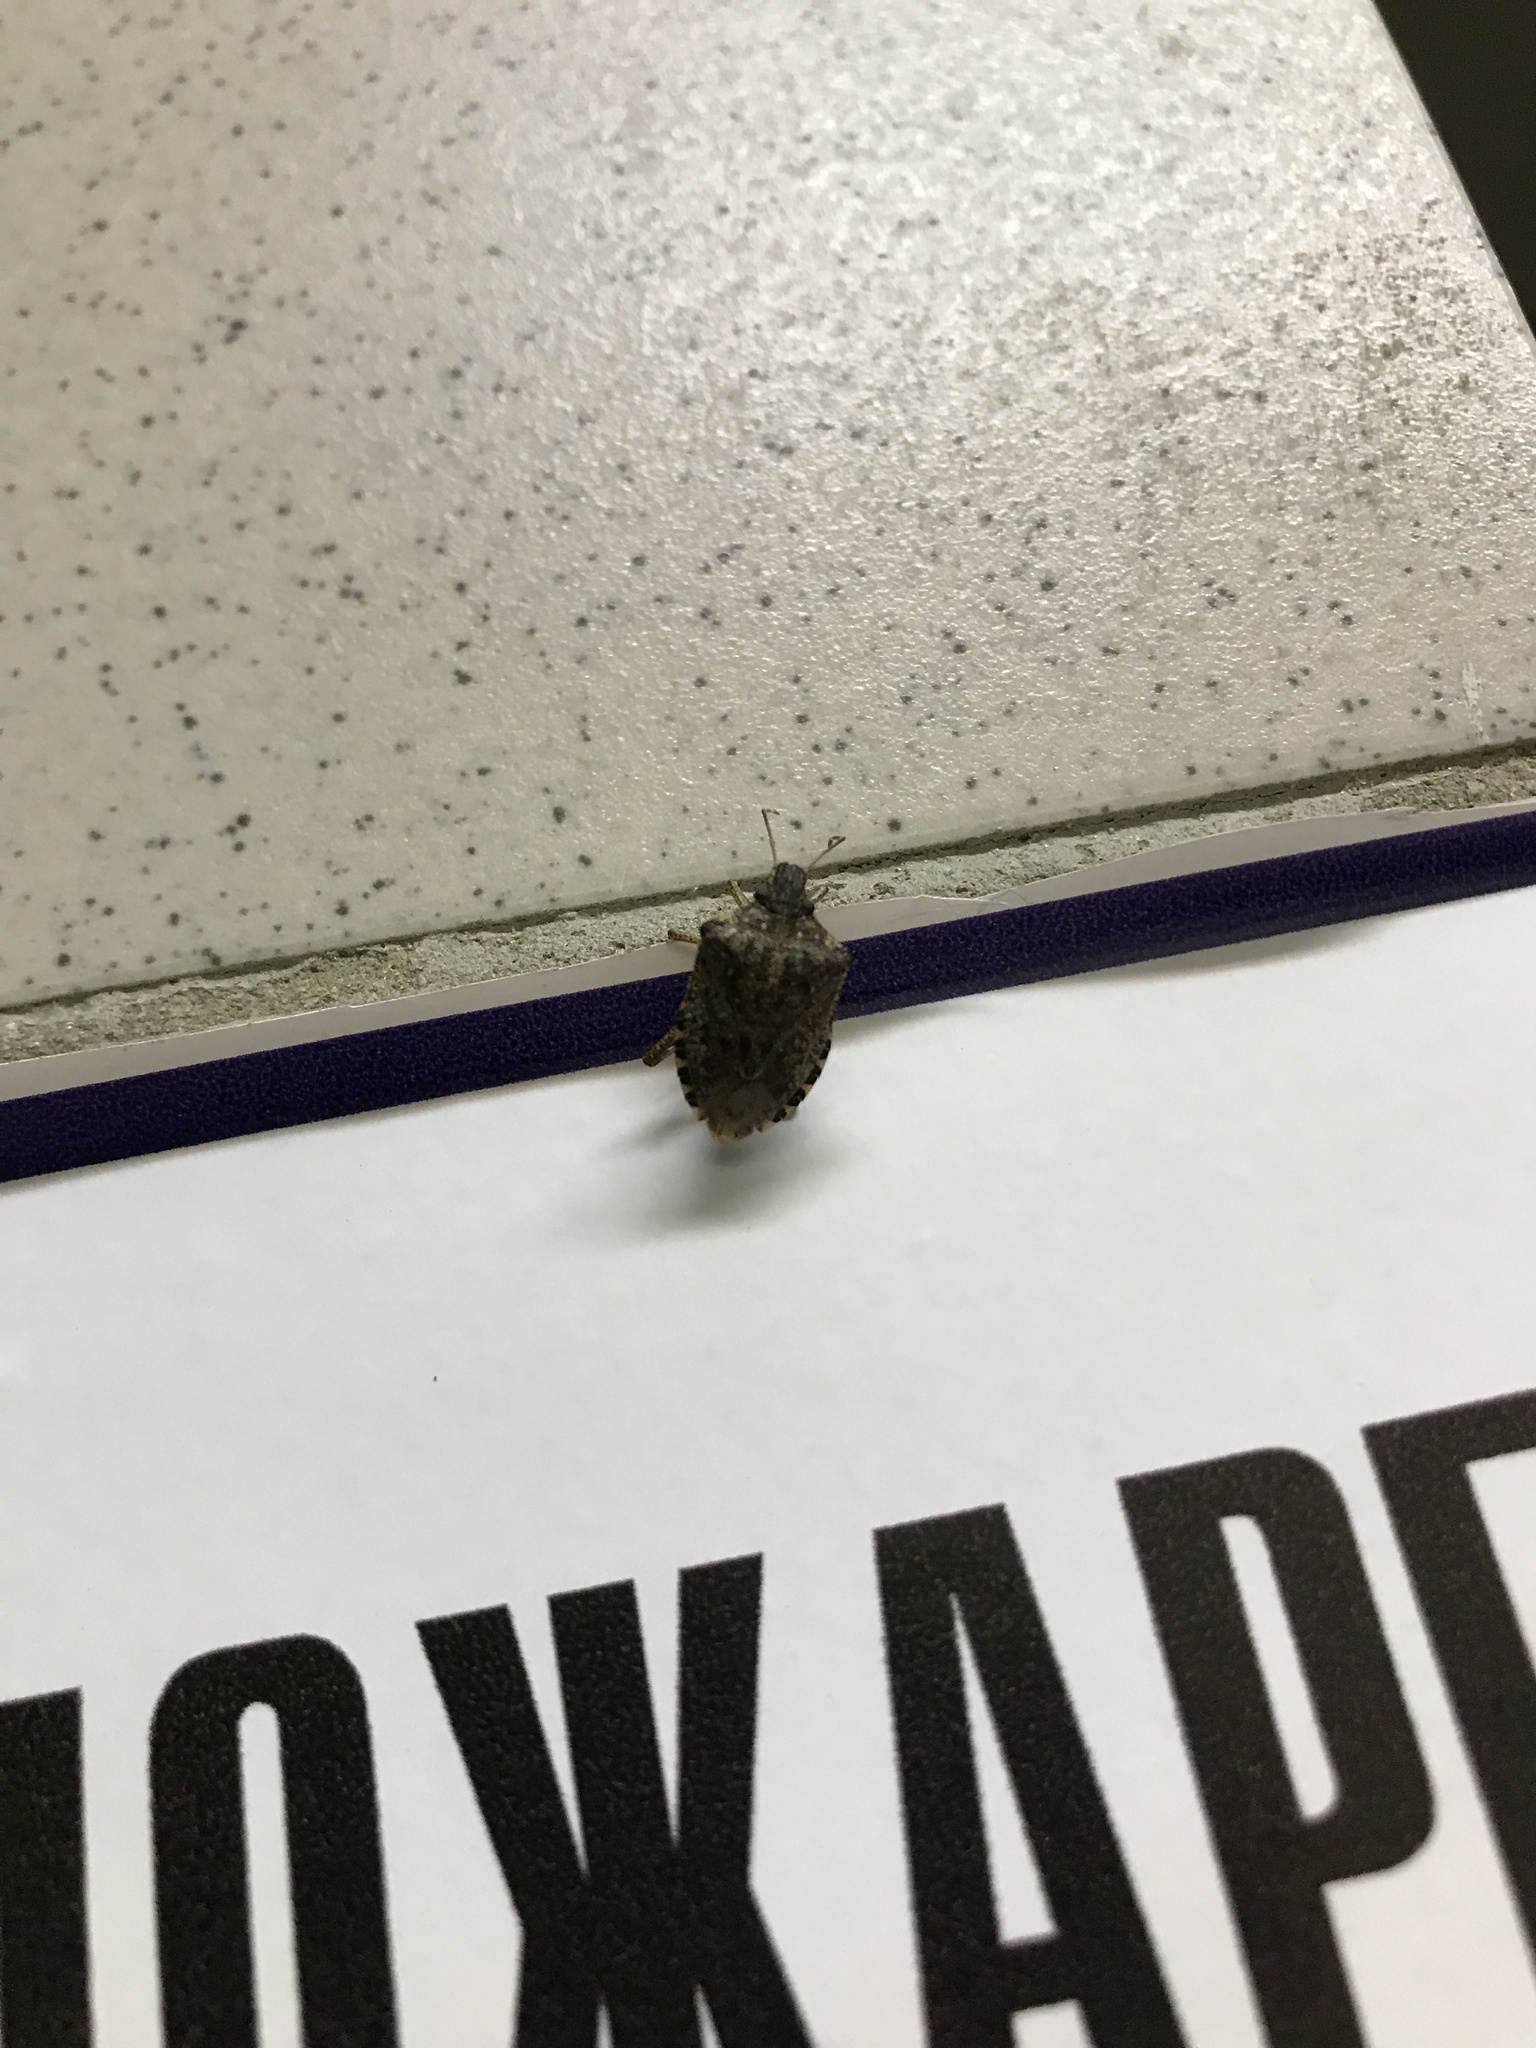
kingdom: Animalia
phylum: Arthropoda
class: Insecta
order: Hemiptera
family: Pentatomidae
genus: Halyomorpha
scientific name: Halyomorpha halys
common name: Brown marmorated stink bug
